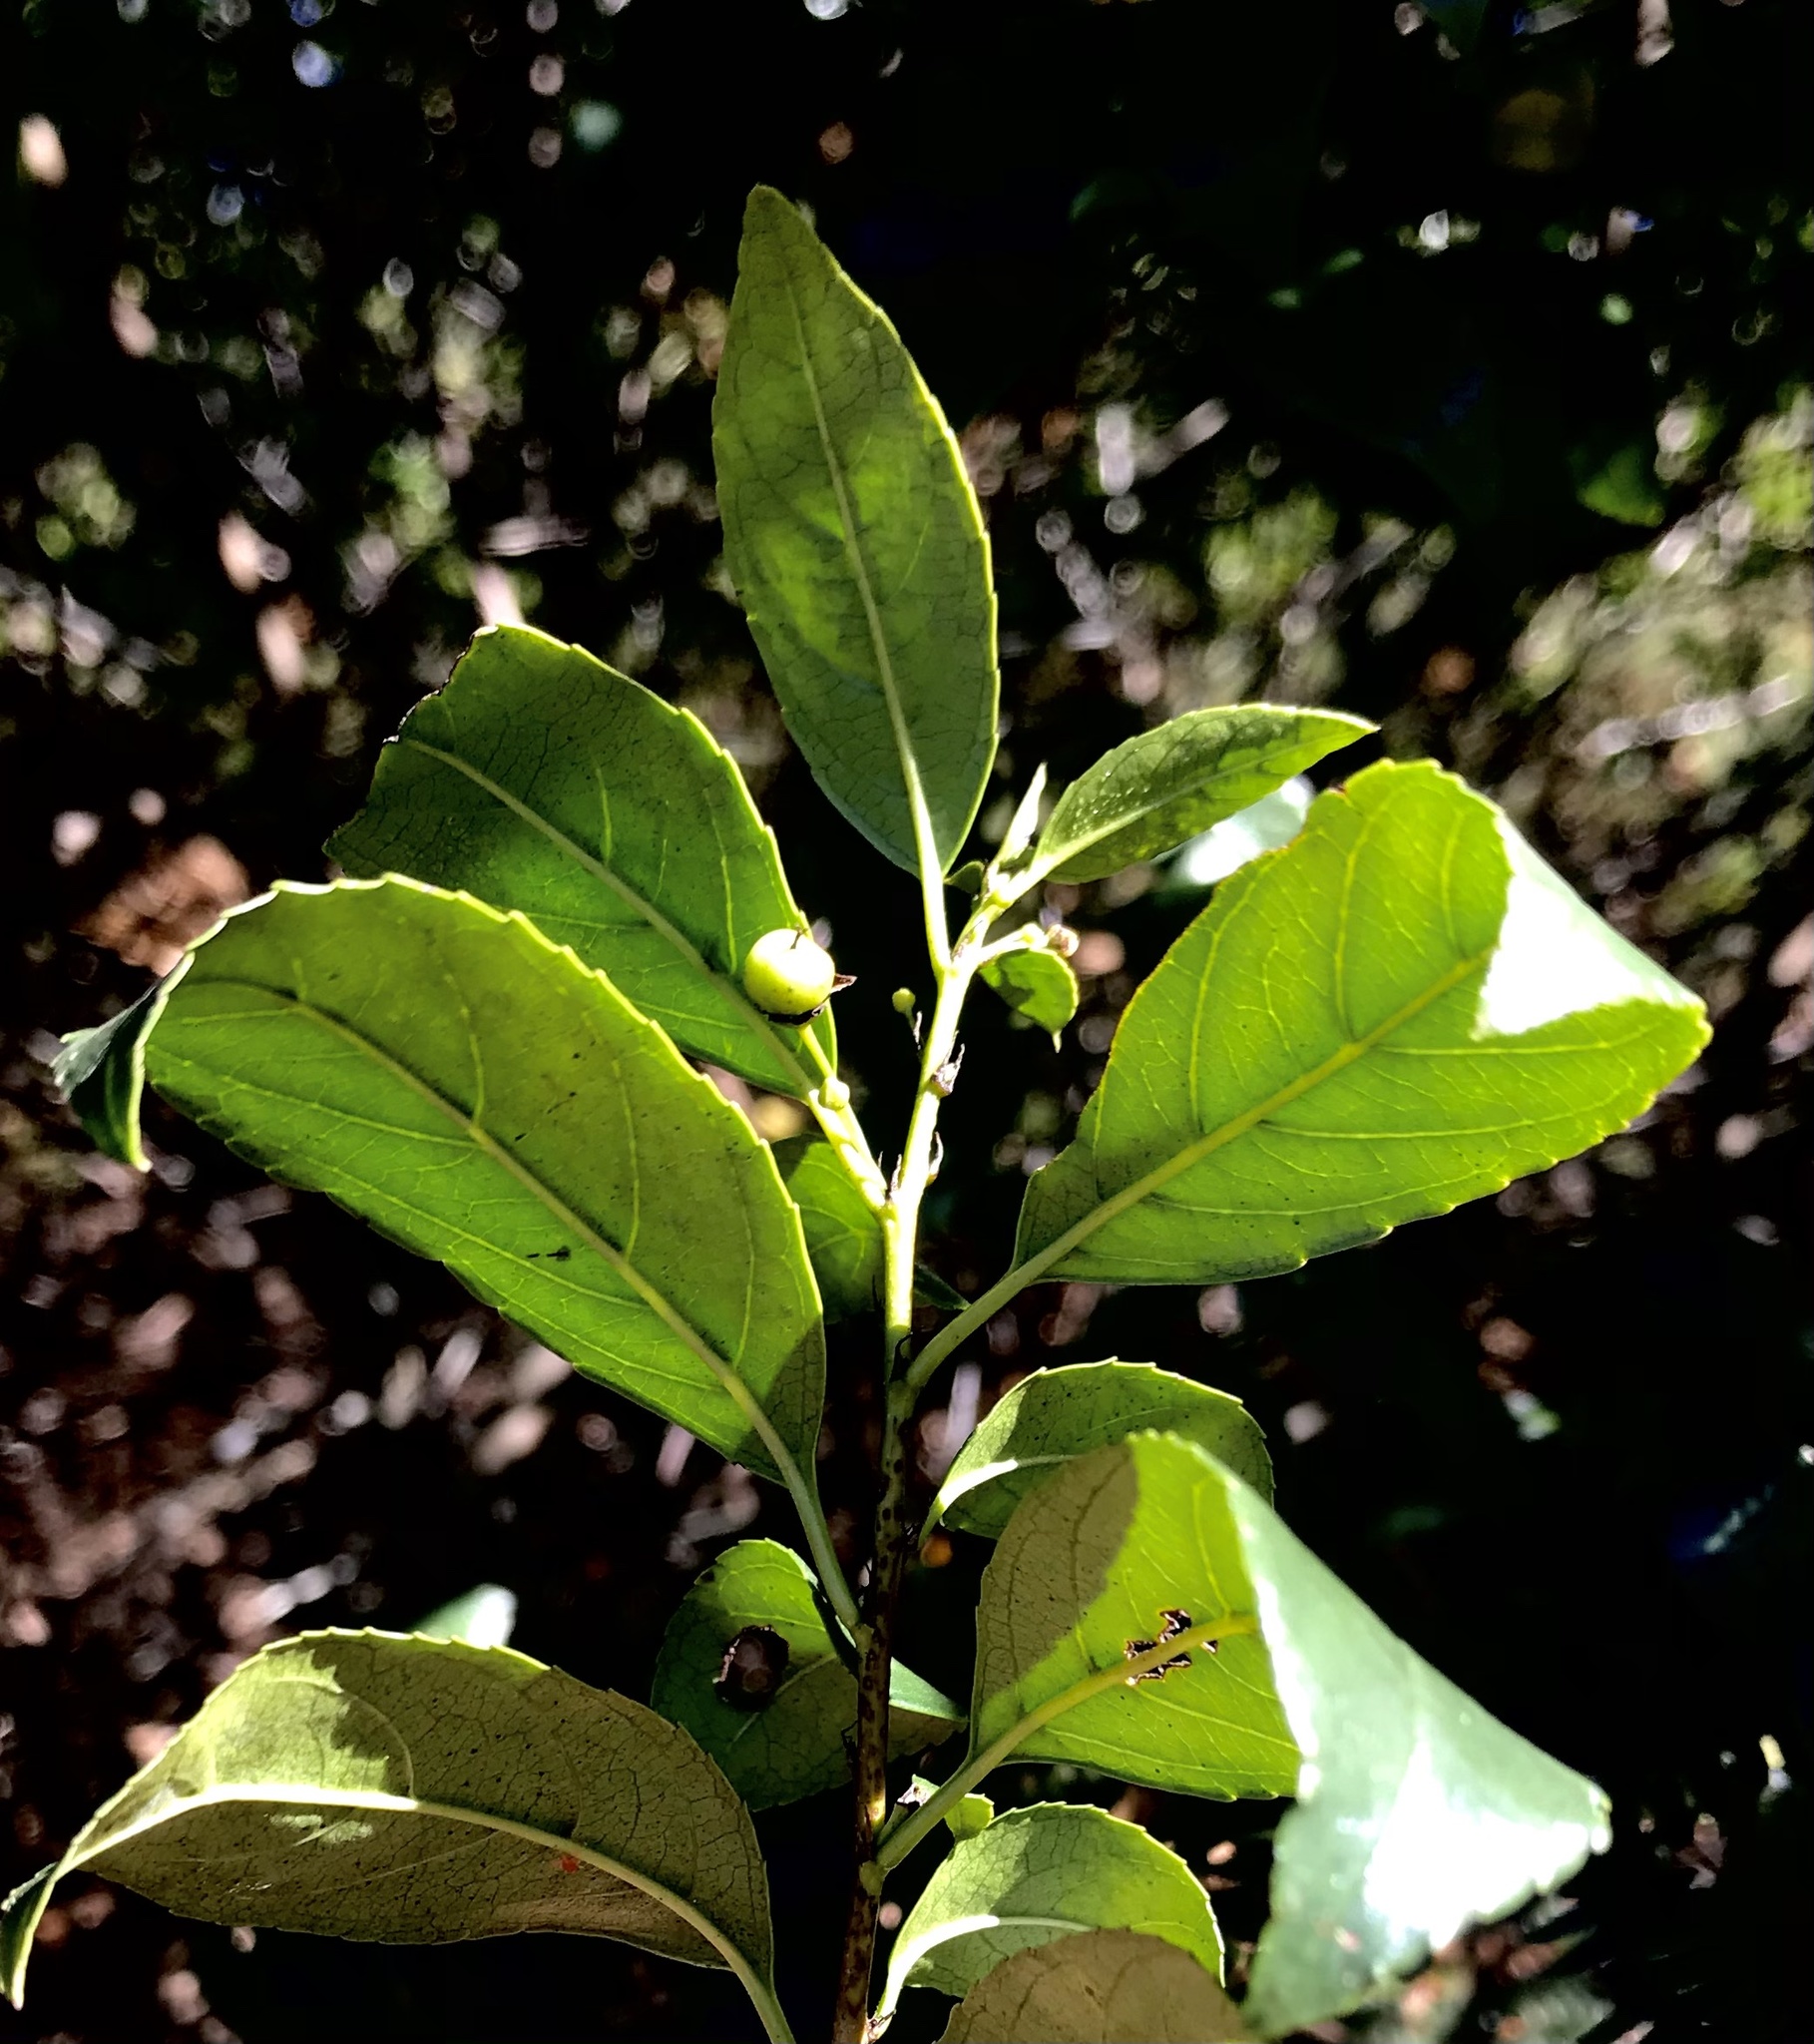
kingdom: Plantae
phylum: Tracheophyta
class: Magnoliopsida
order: Rosales
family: Rhamnaceae
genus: Rhamnus
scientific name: Rhamnus prinoides
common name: Dogwood
